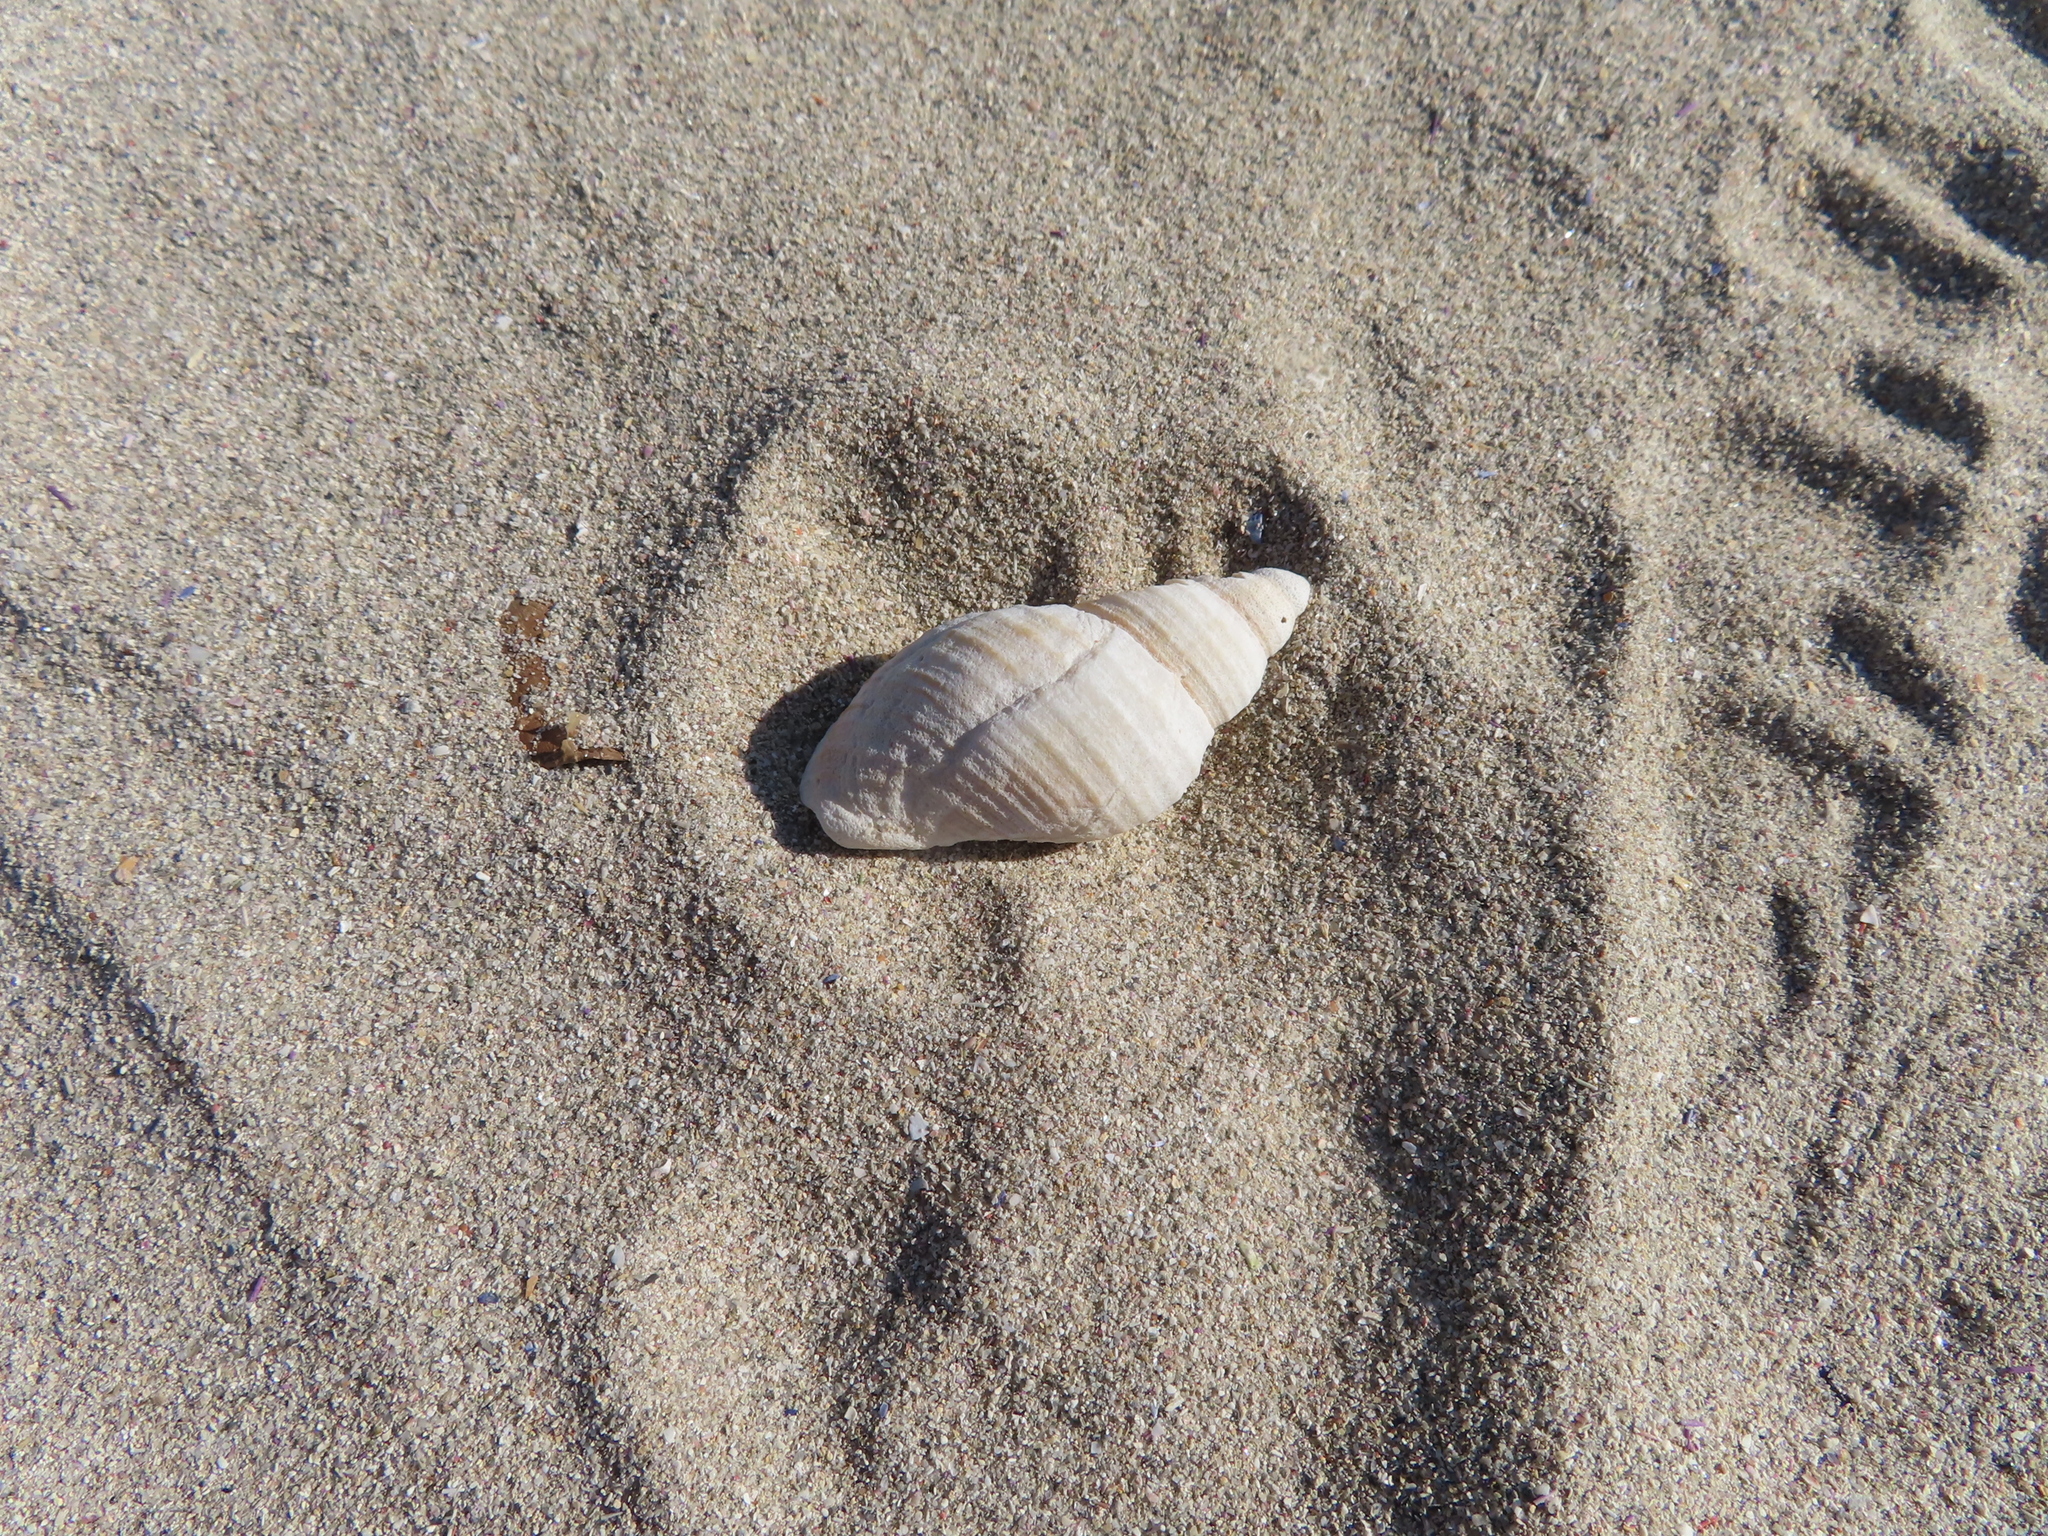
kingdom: Animalia
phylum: Mollusca
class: Gastropoda
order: Neogastropoda
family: Muricidae
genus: Nucella
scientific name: Nucella squamosa
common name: Scaly dogwhelk
